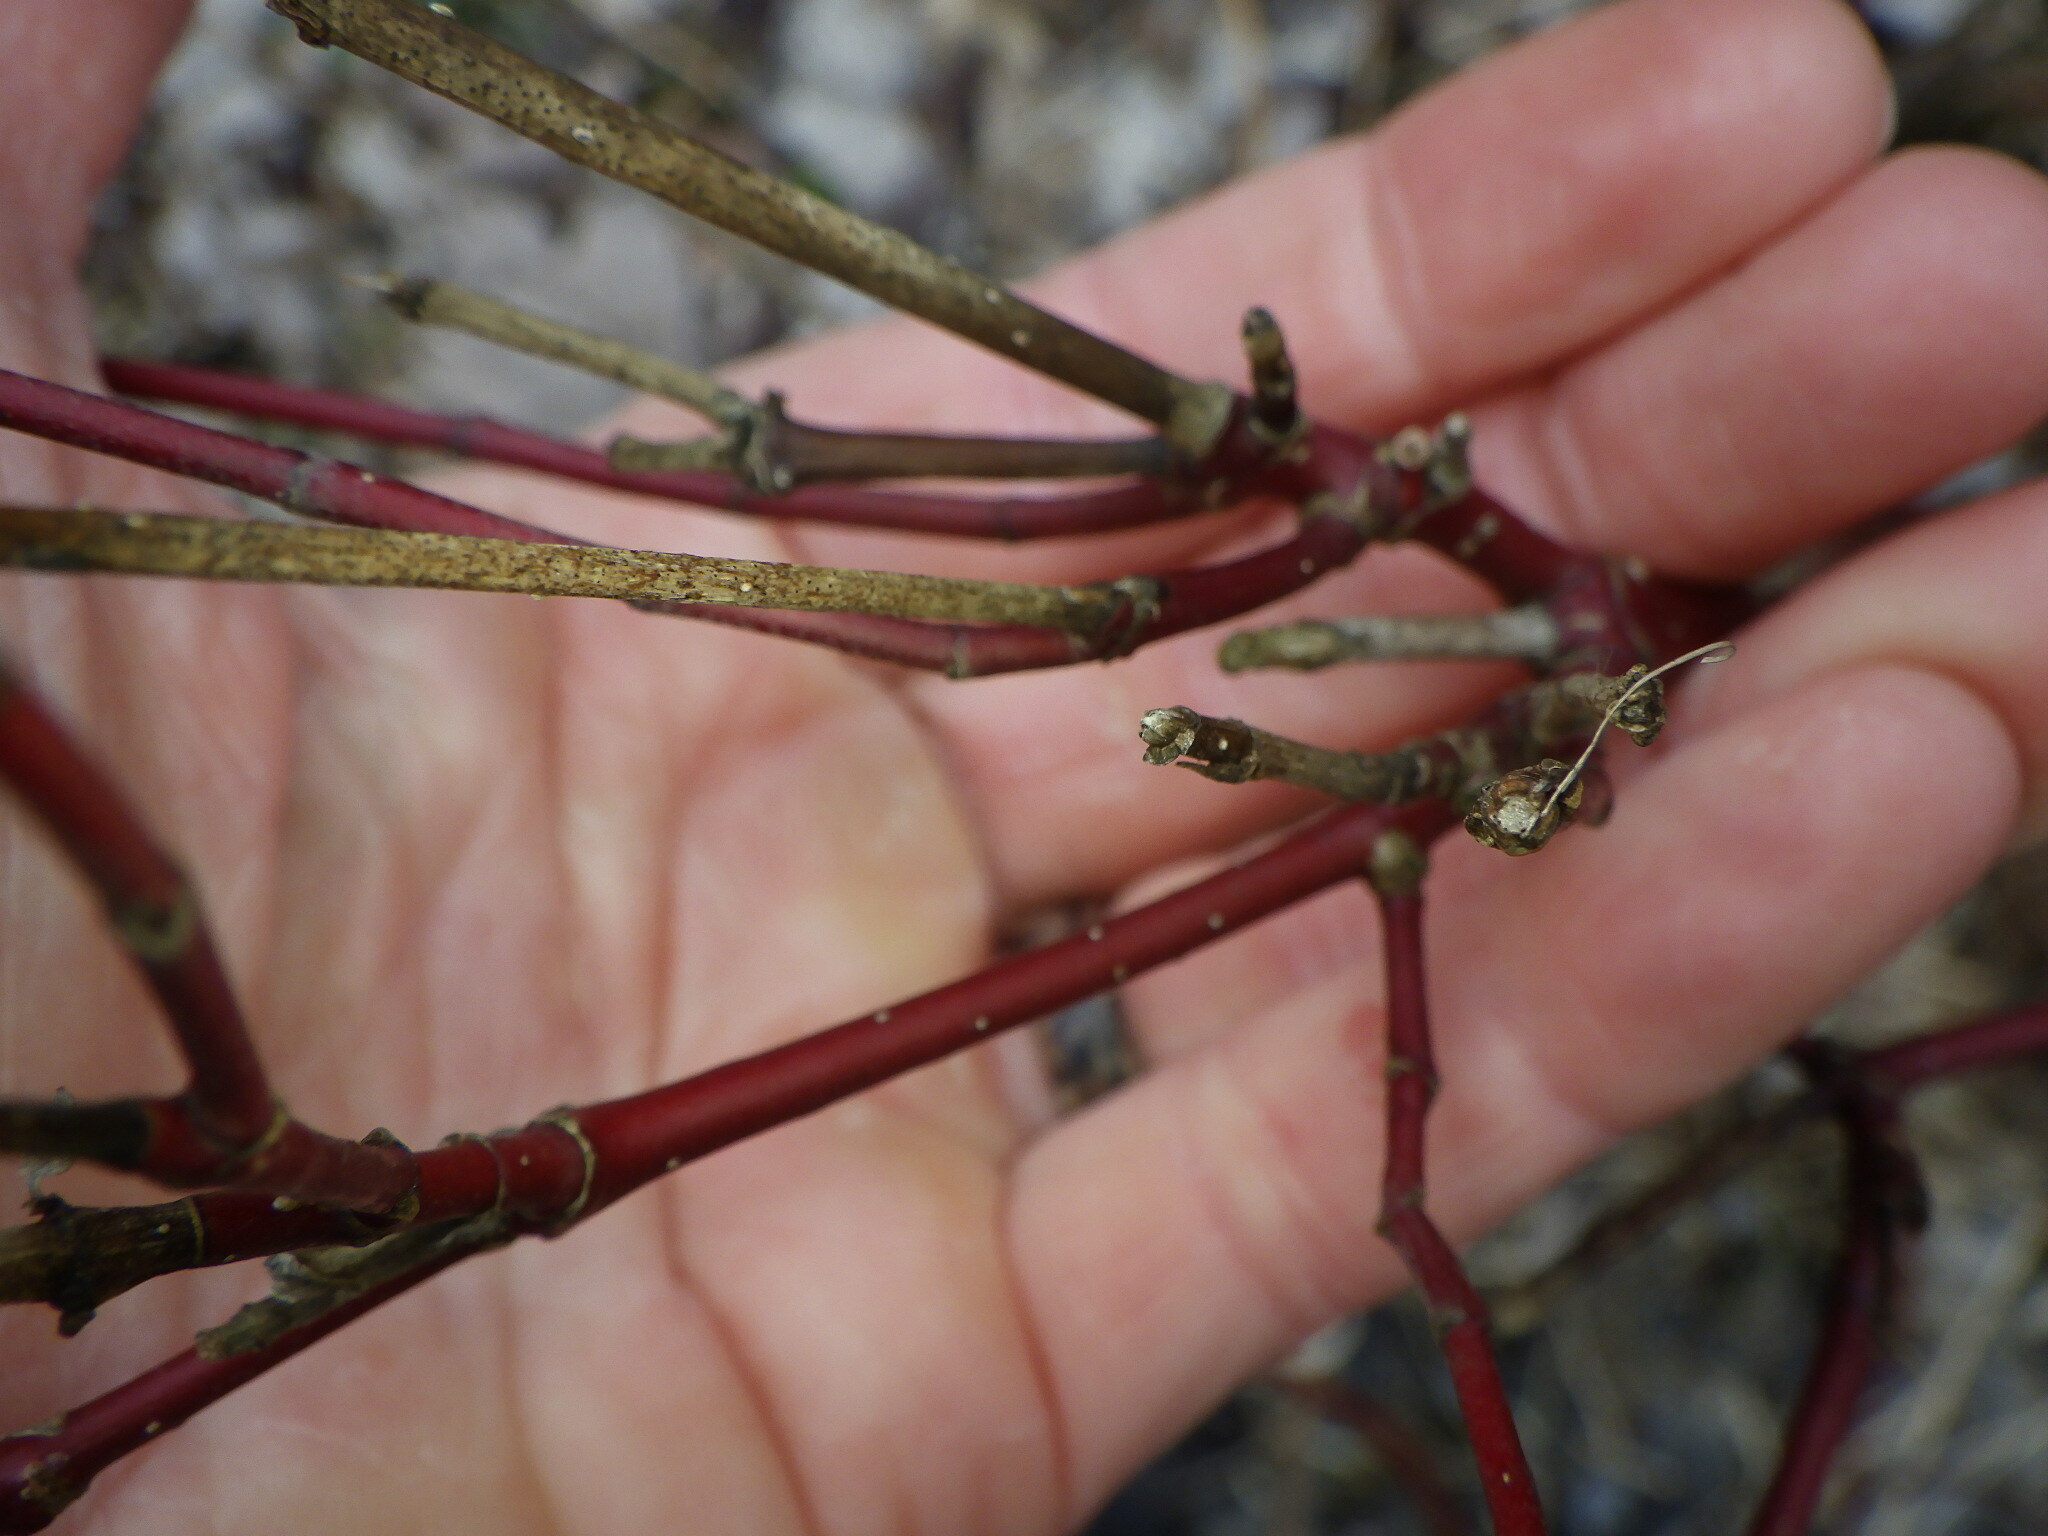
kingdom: Plantae
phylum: Tracheophyta
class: Magnoliopsida
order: Cornales
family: Cornaceae
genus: Cornus
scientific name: Cornus sericea
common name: Red-osier dogwood
